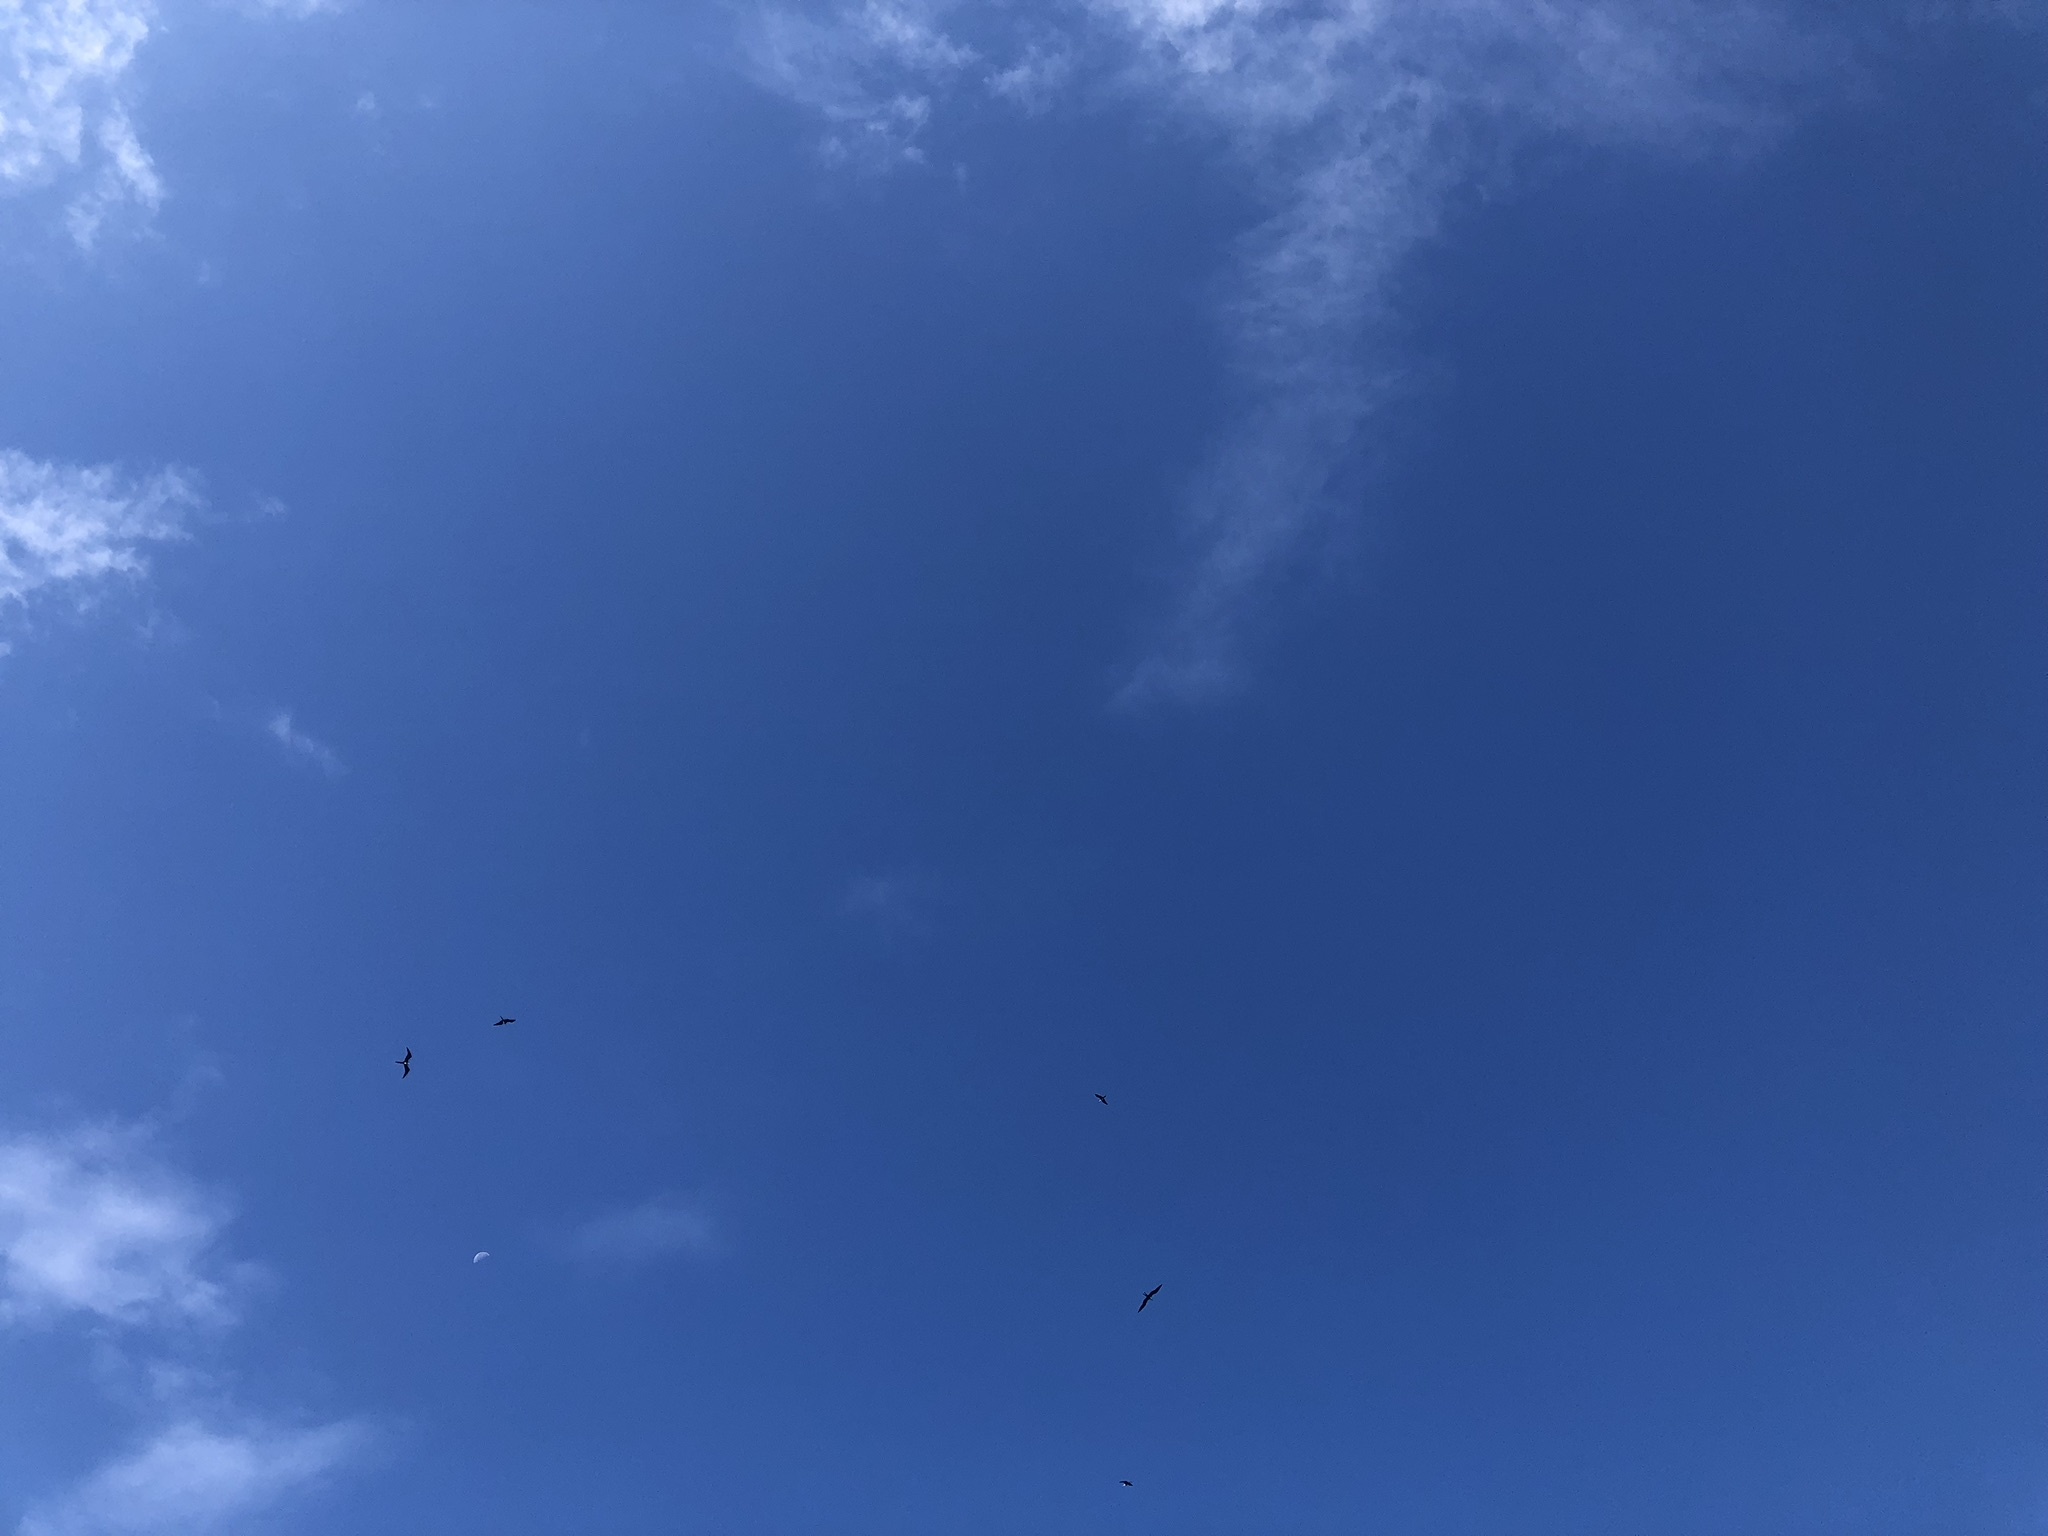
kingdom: Animalia
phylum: Chordata
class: Aves
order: Suliformes
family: Fregatidae
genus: Fregata
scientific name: Fregata magnificens
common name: Magnificent frigatebird
